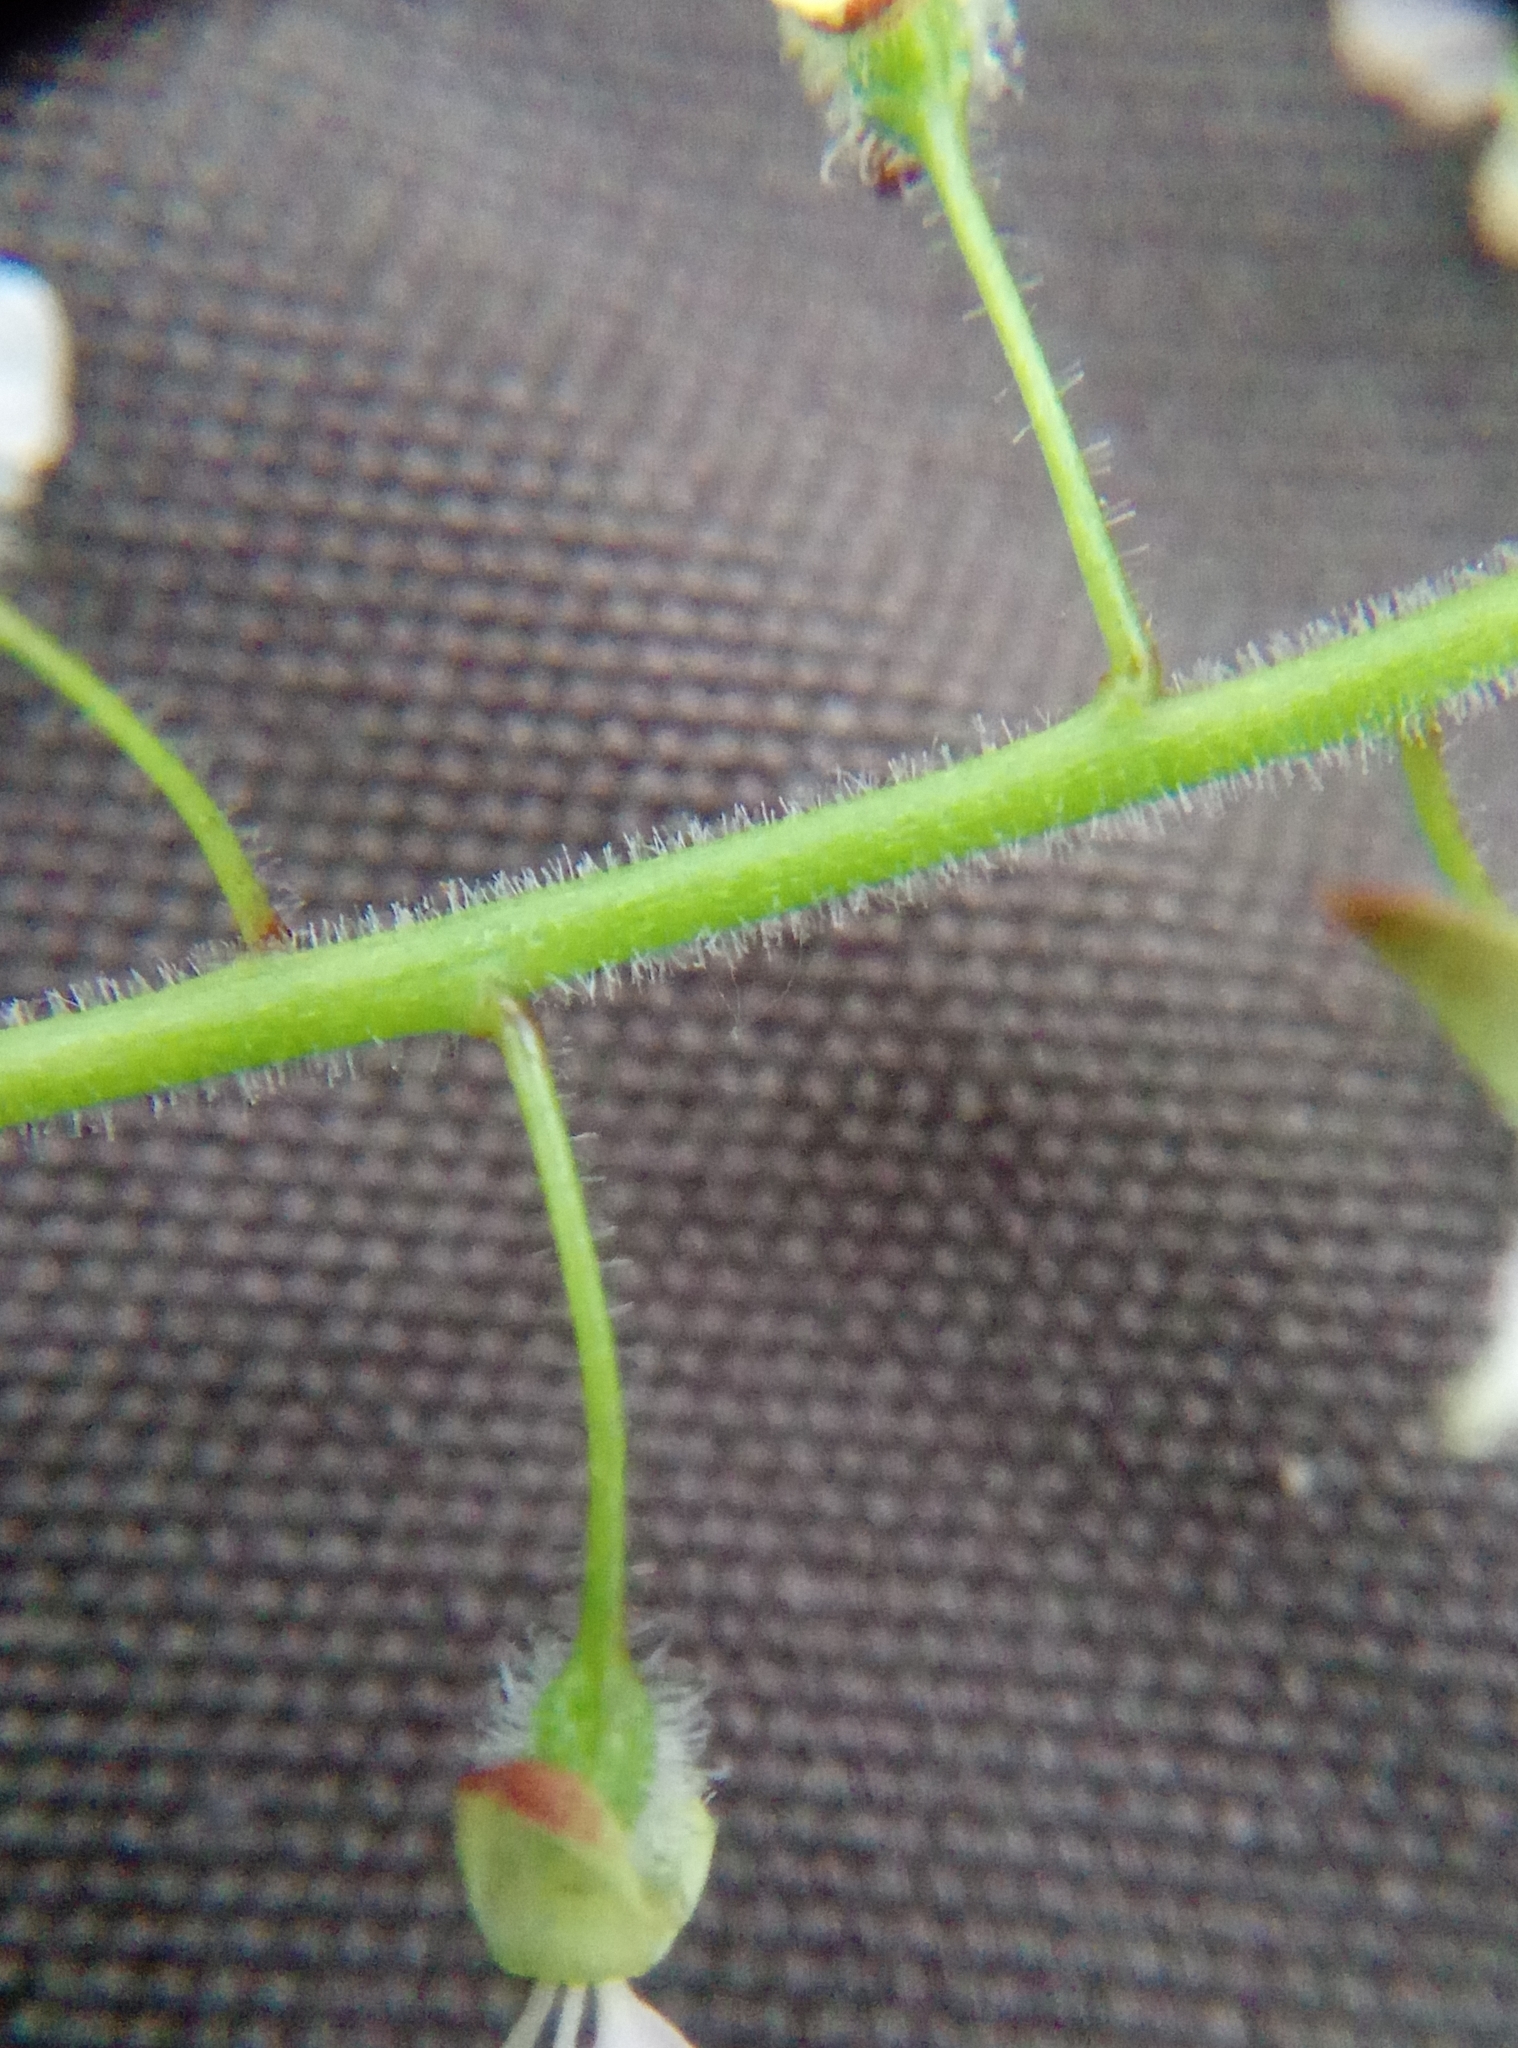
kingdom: Plantae
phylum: Tracheophyta
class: Magnoliopsida
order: Myrtales
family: Onagraceae
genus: Circaea
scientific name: Circaea lutetiana
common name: Enchanter's-nightshade
